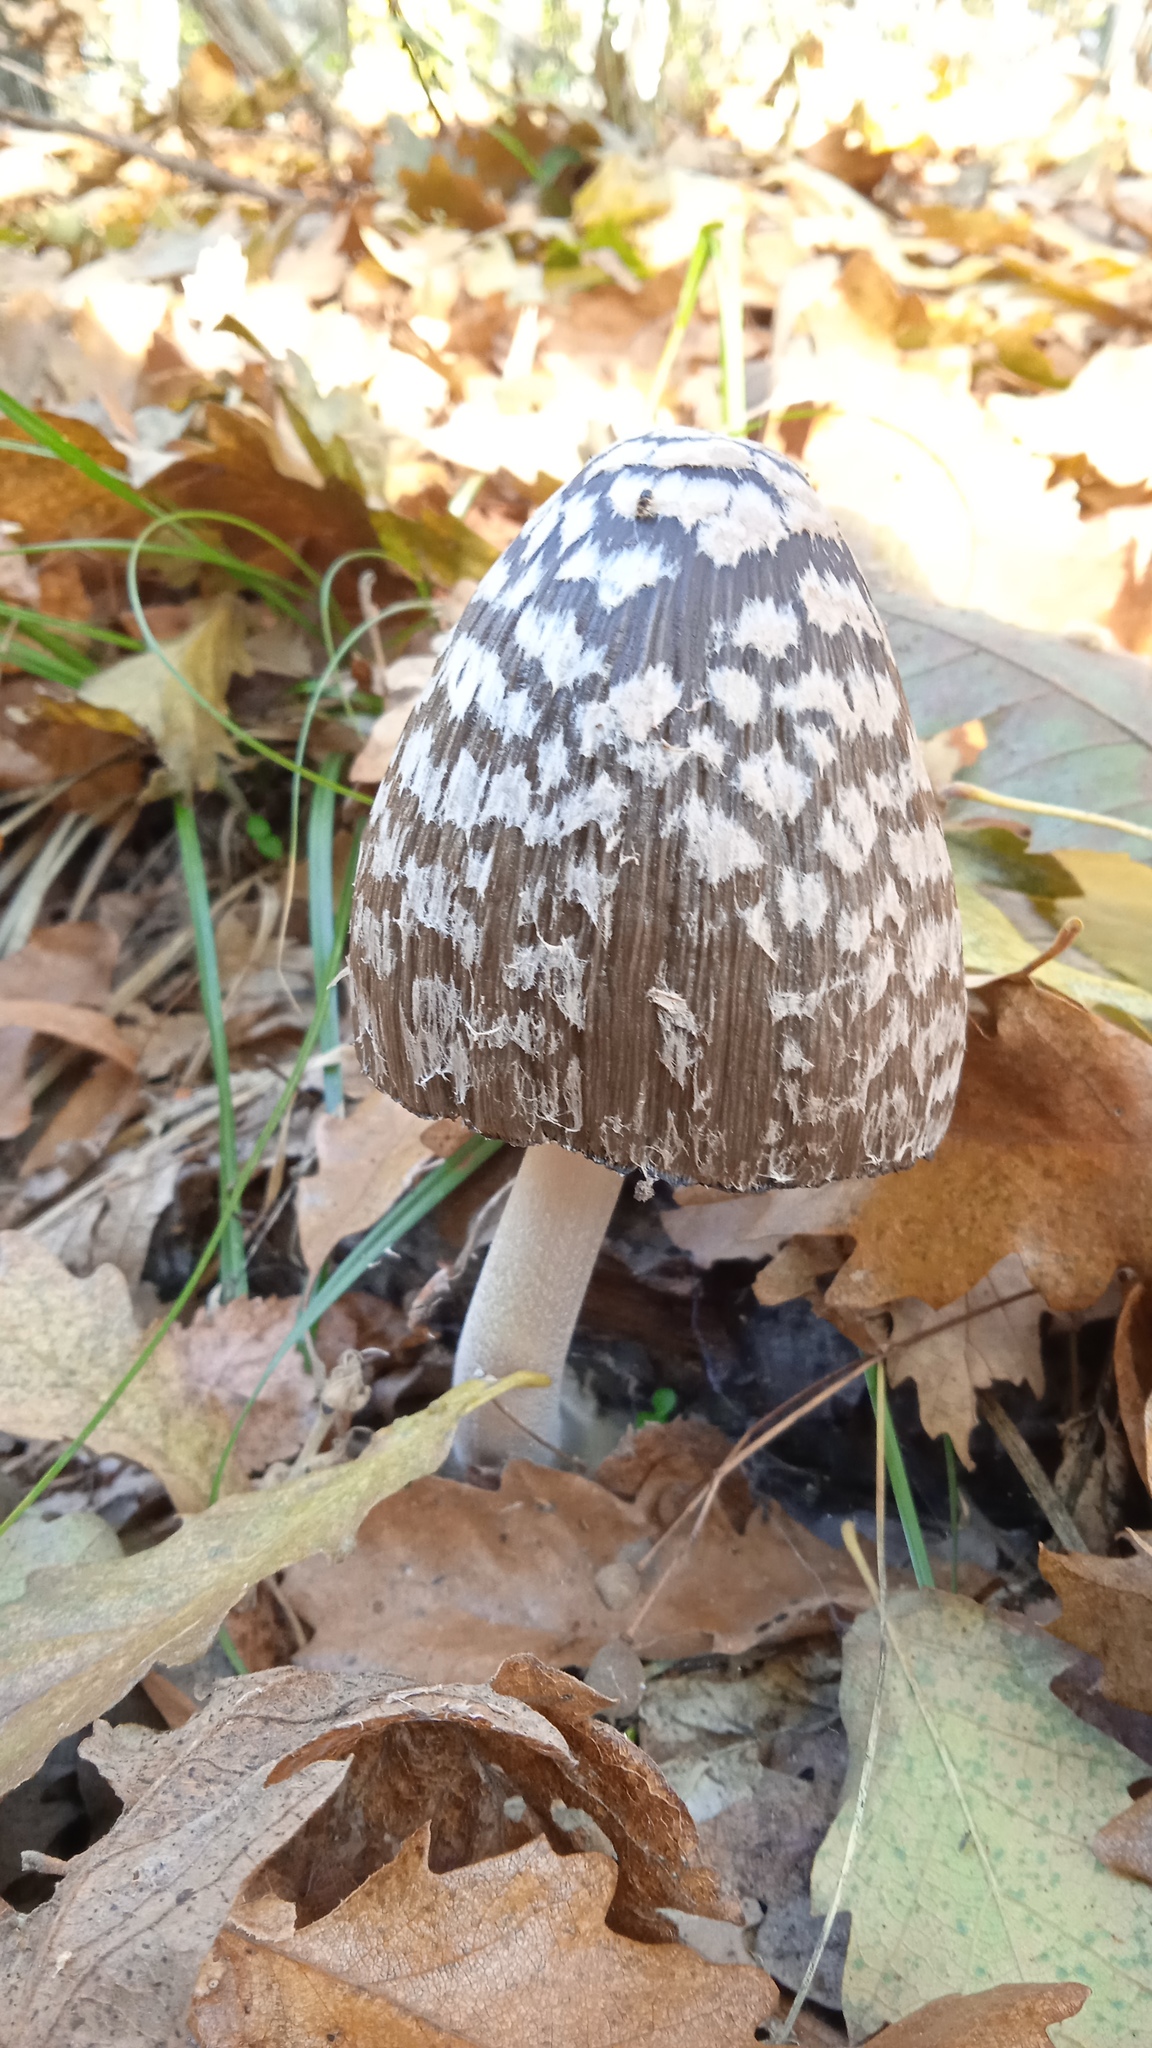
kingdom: Fungi
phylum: Basidiomycota
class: Agaricomycetes
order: Agaricales
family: Psathyrellaceae
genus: Coprinopsis
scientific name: Coprinopsis picacea
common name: Magpie inkcap
